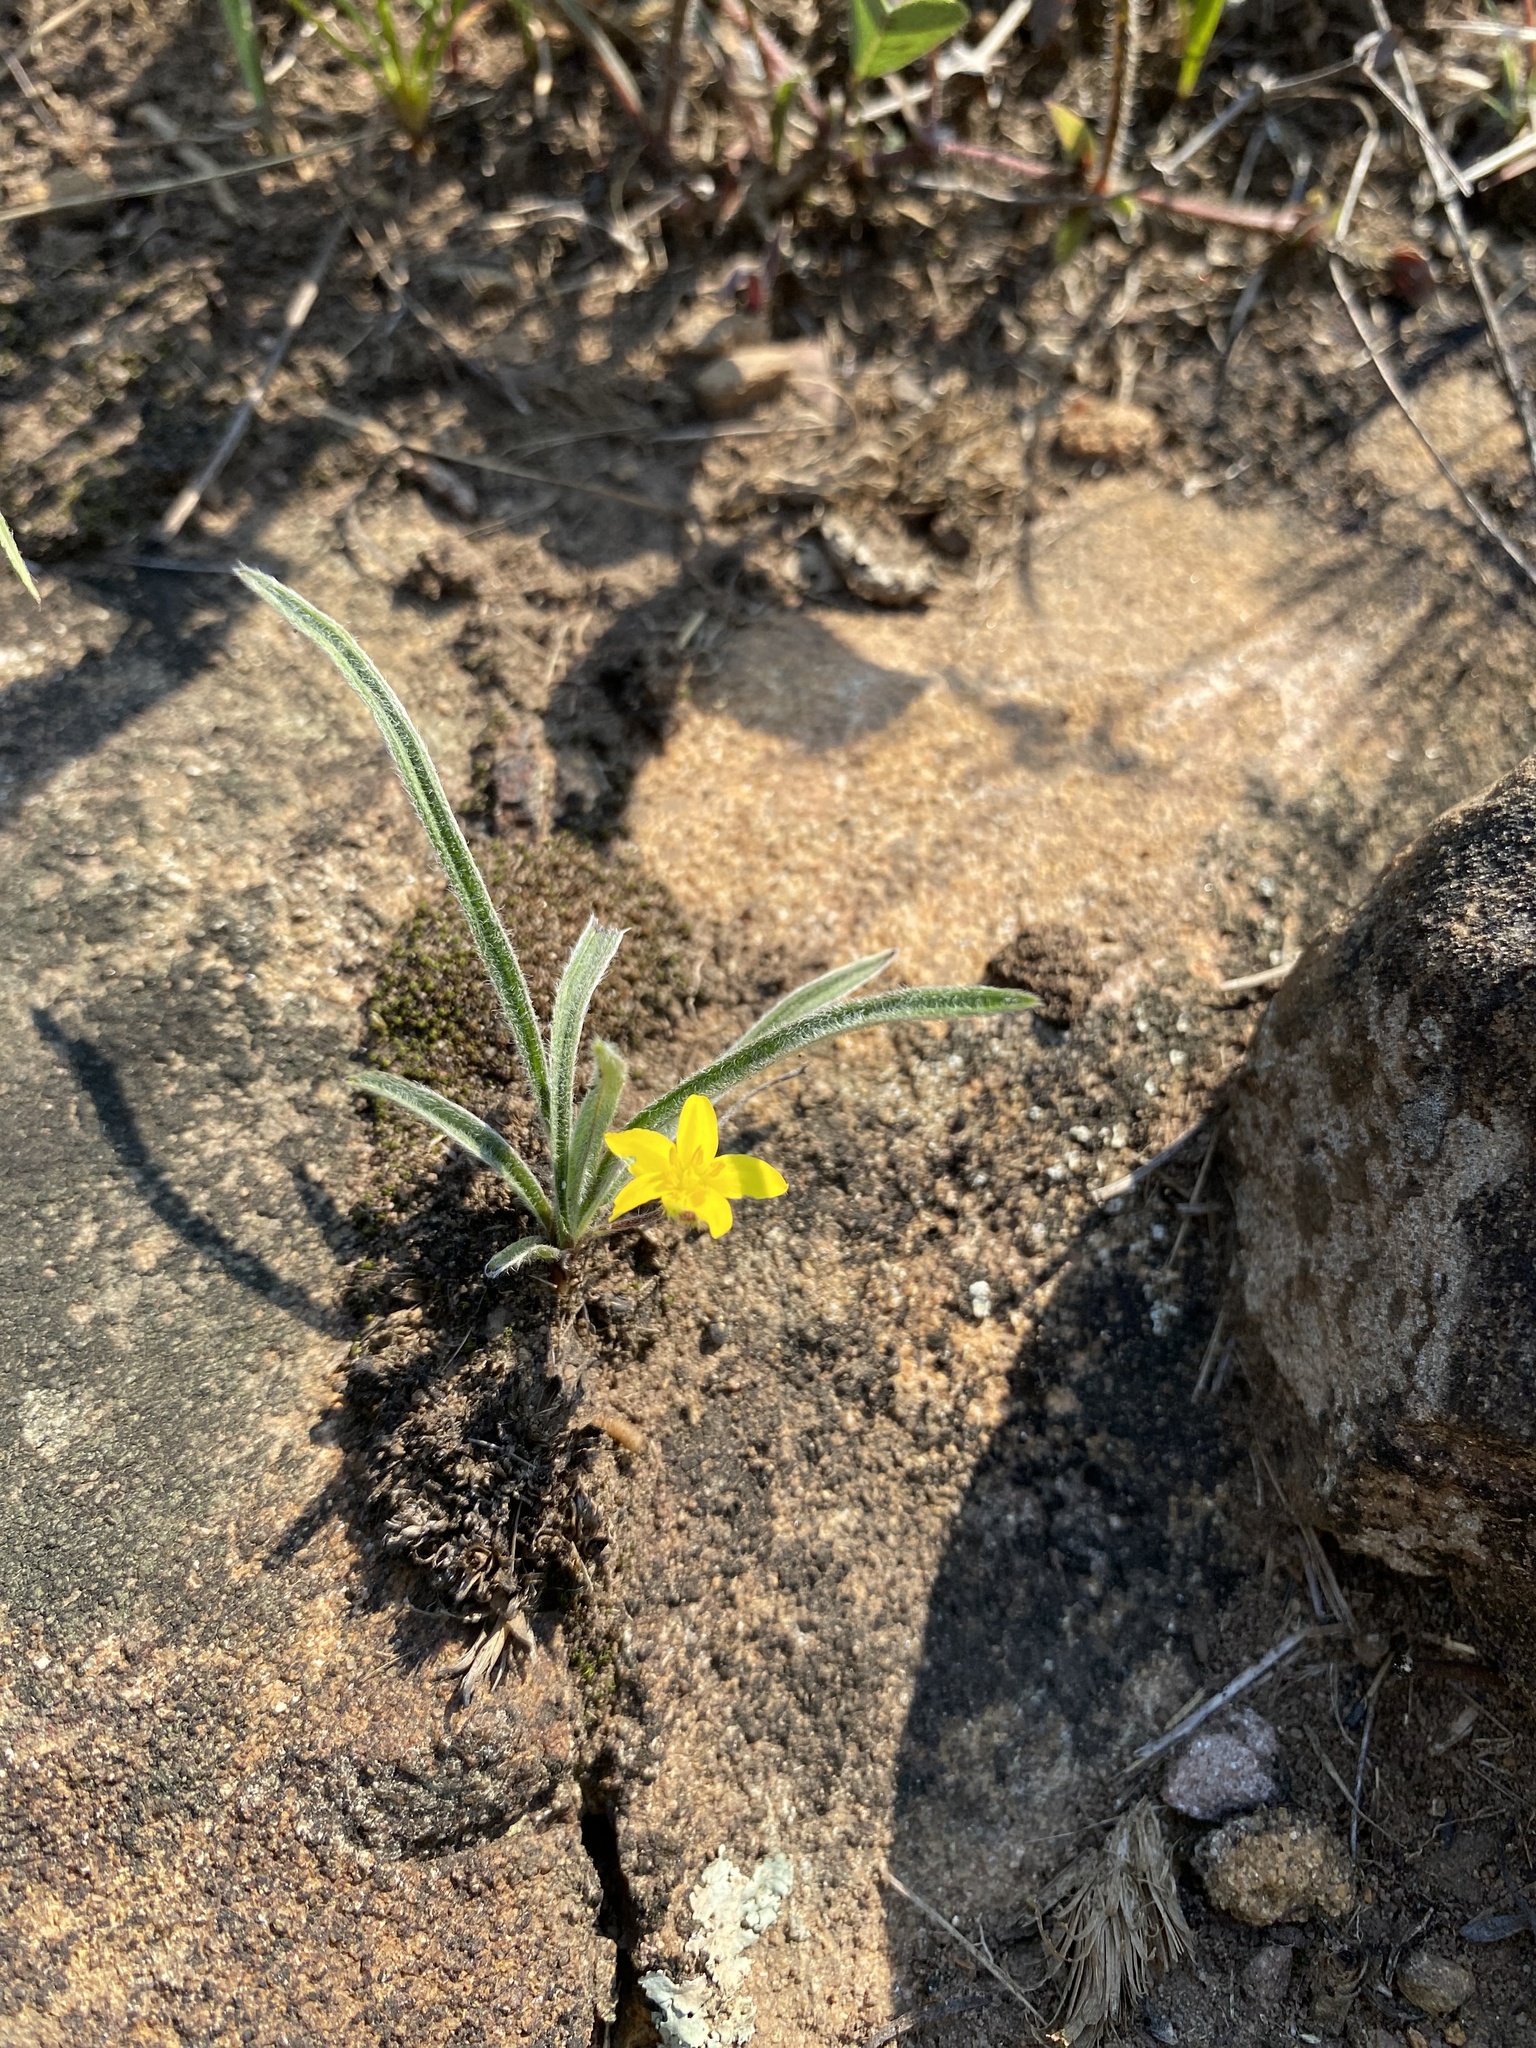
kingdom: Plantae
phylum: Tracheophyta
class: Liliopsida
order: Asparagales
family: Hypoxidaceae
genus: Hypoxis
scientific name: Hypoxis argentea
